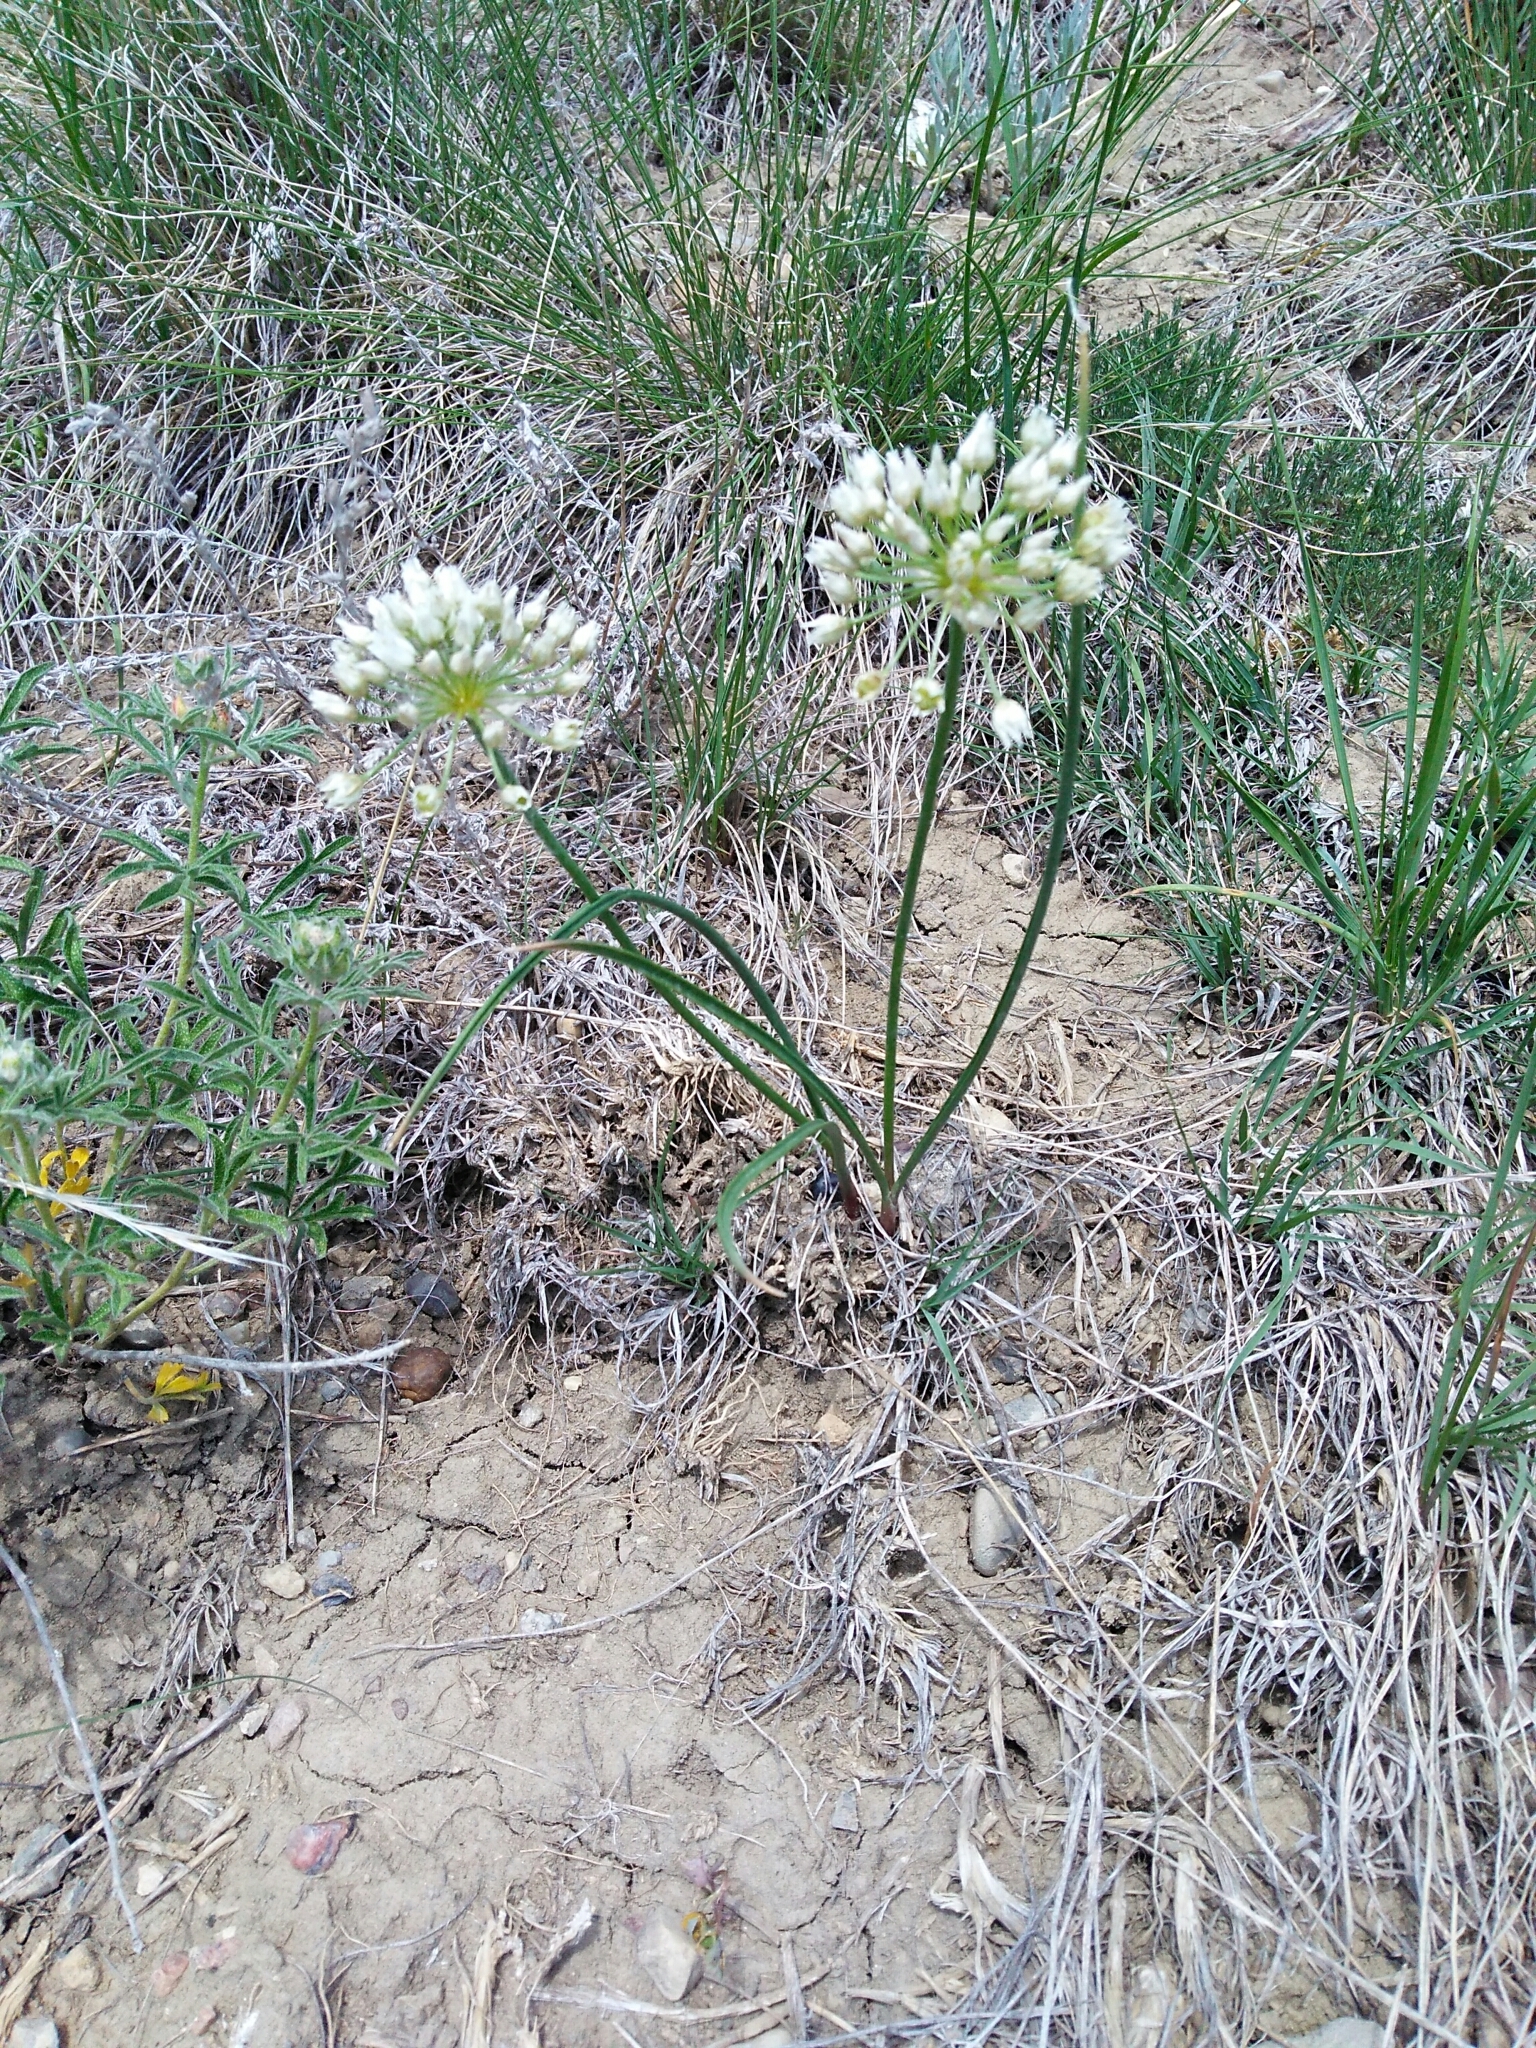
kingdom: Plantae
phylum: Tracheophyta
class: Liliopsida
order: Asparagales
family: Amaryllidaceae
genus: Allium
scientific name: Allium textile
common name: Prairie onion
